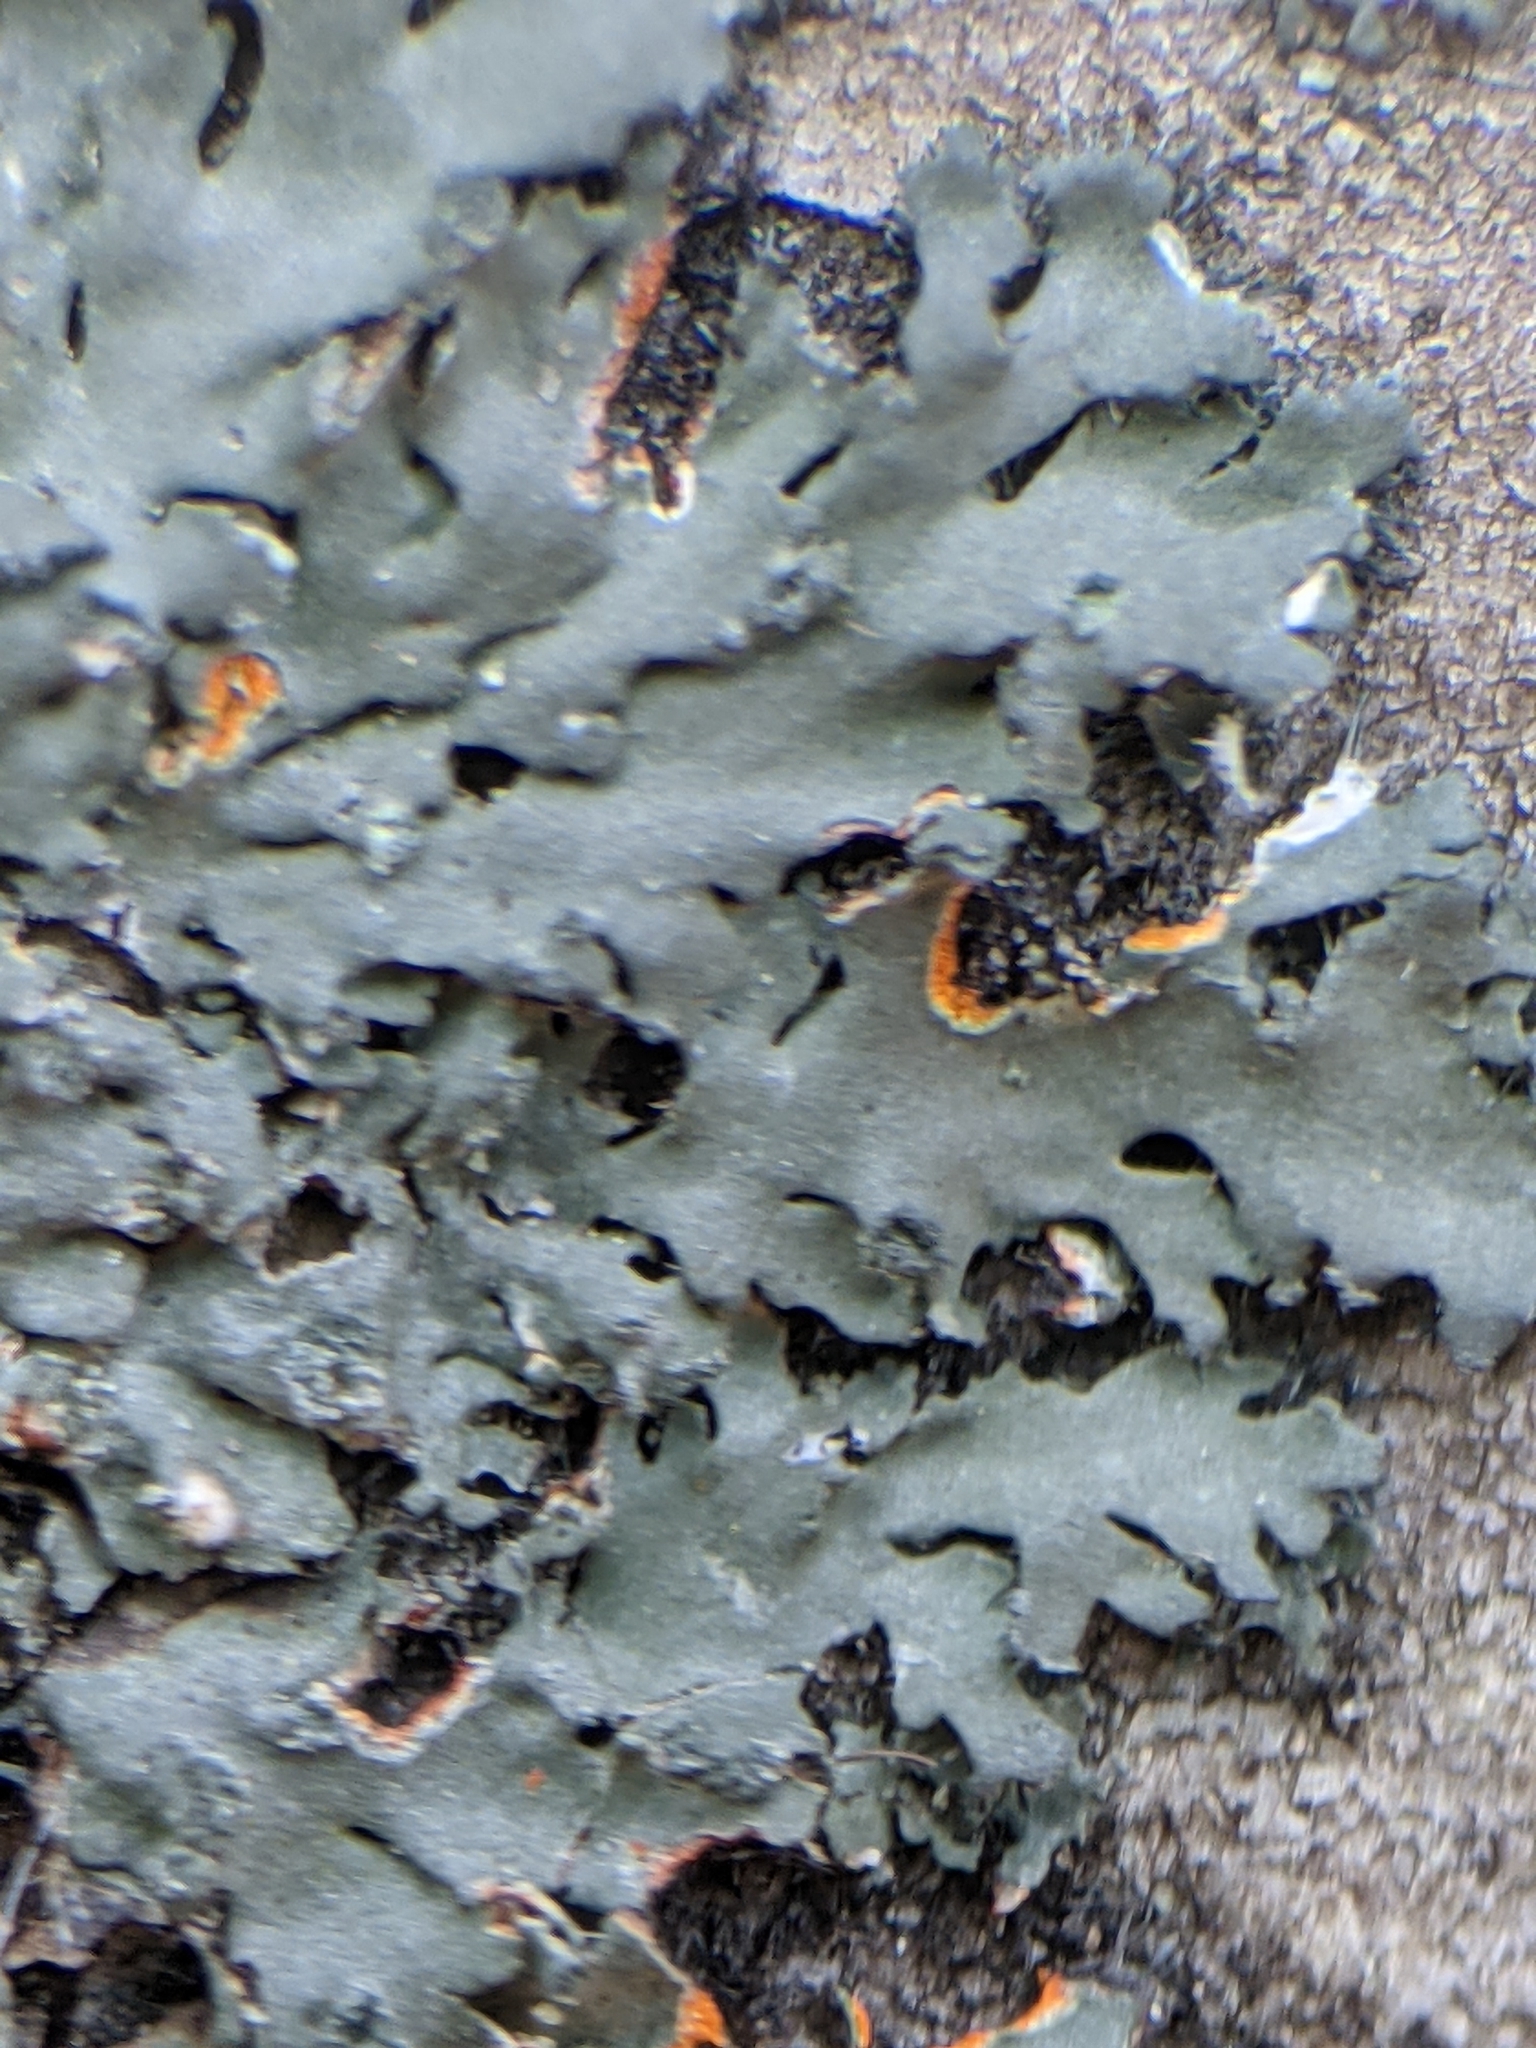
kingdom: Fungi
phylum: Ascomycota
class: Lecanoromycetes
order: Caliciales
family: Physciaceae
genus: Phaeophyscia
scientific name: Phaeophyscia rubropulchra
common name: Orange-cored shadow lichen
